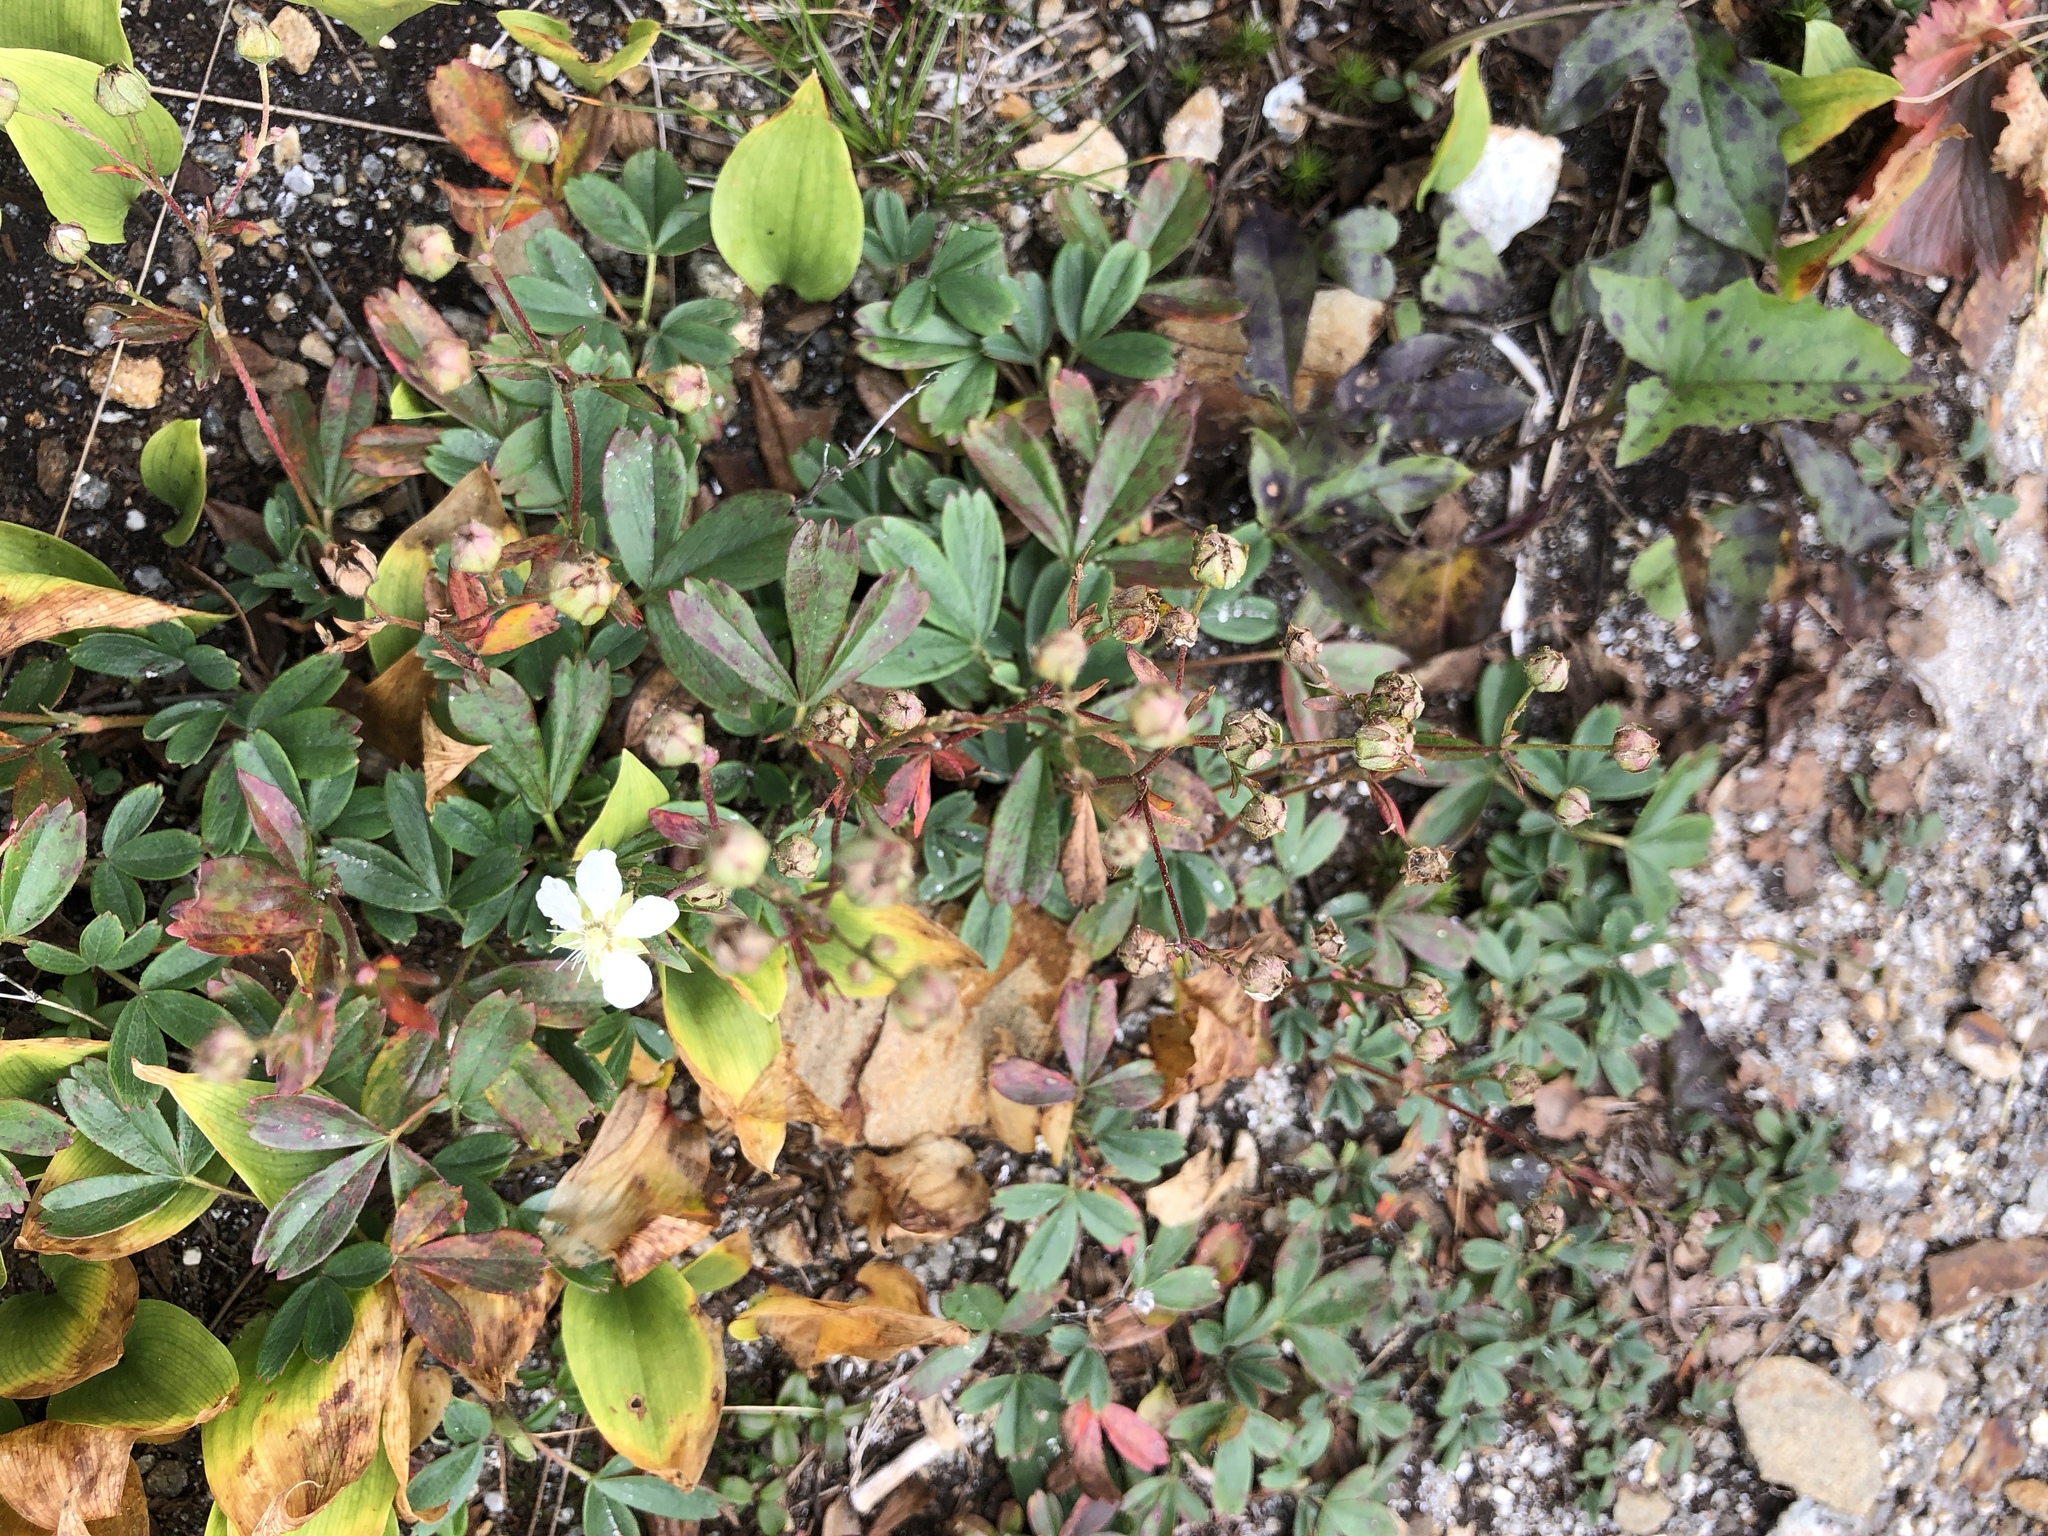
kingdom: Plantae
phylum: Tracheophyta
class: Magnoliopsida
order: Rosales
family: Rosaceae
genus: Sibbaldia
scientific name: Sibbaldia tridentata
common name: Three-toothed cinquefoil
